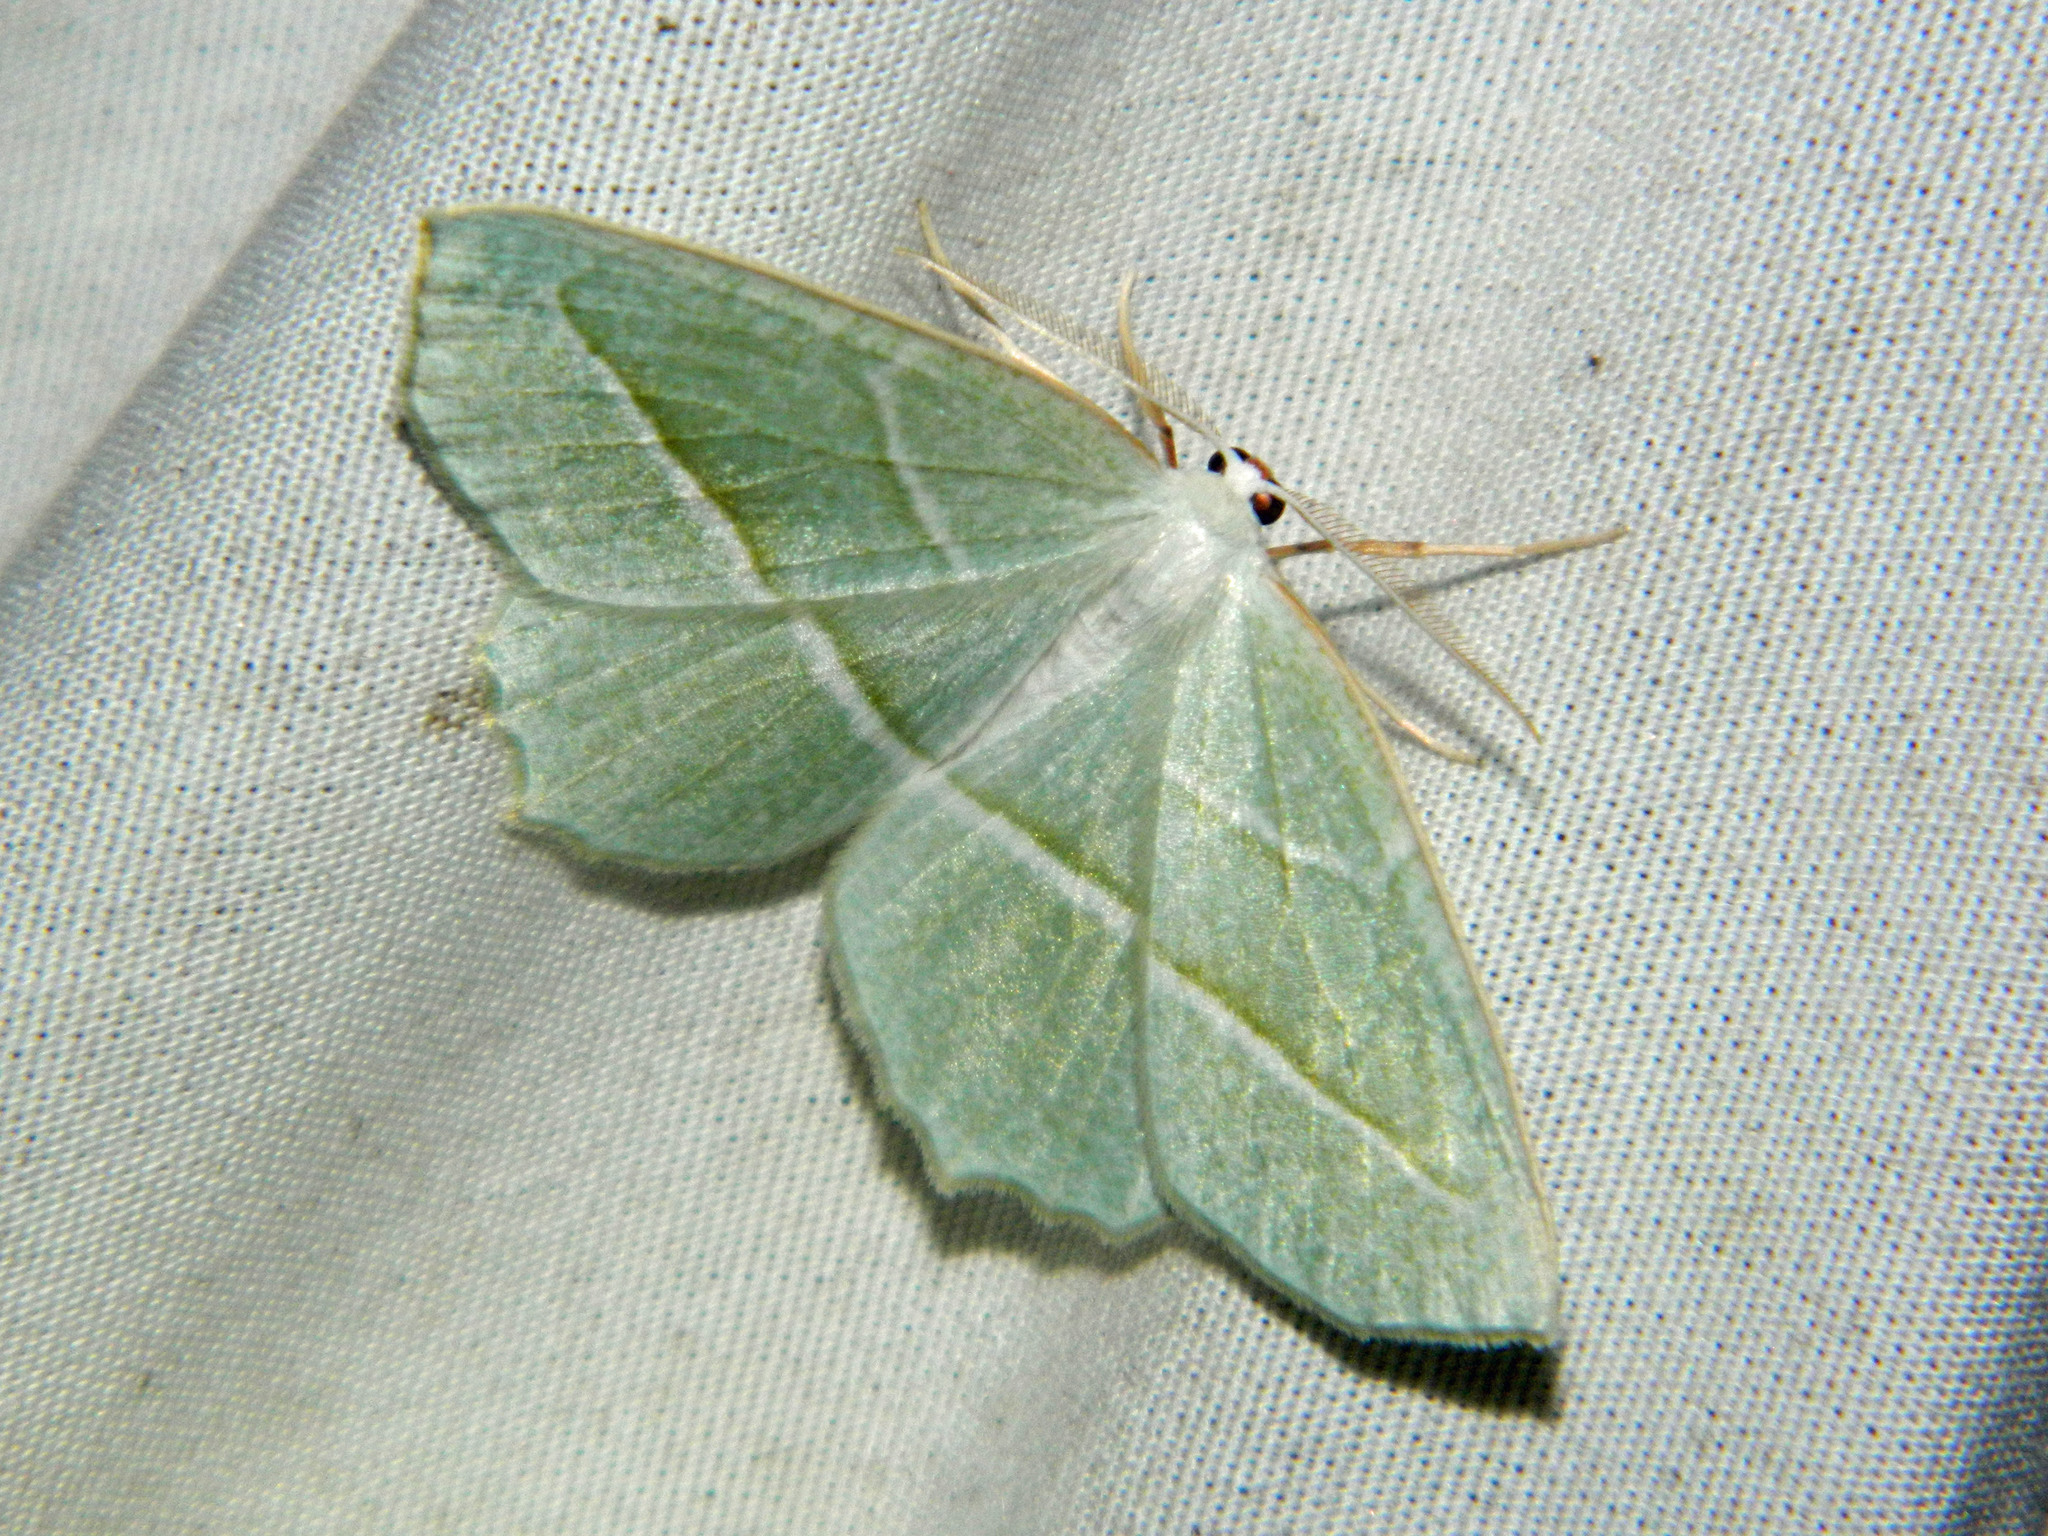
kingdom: Animalia
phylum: Arthropoda
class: Insecta
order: Lepidoptera
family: Geometridae
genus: Campaea
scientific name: Campaea perlata
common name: Fringed looper
